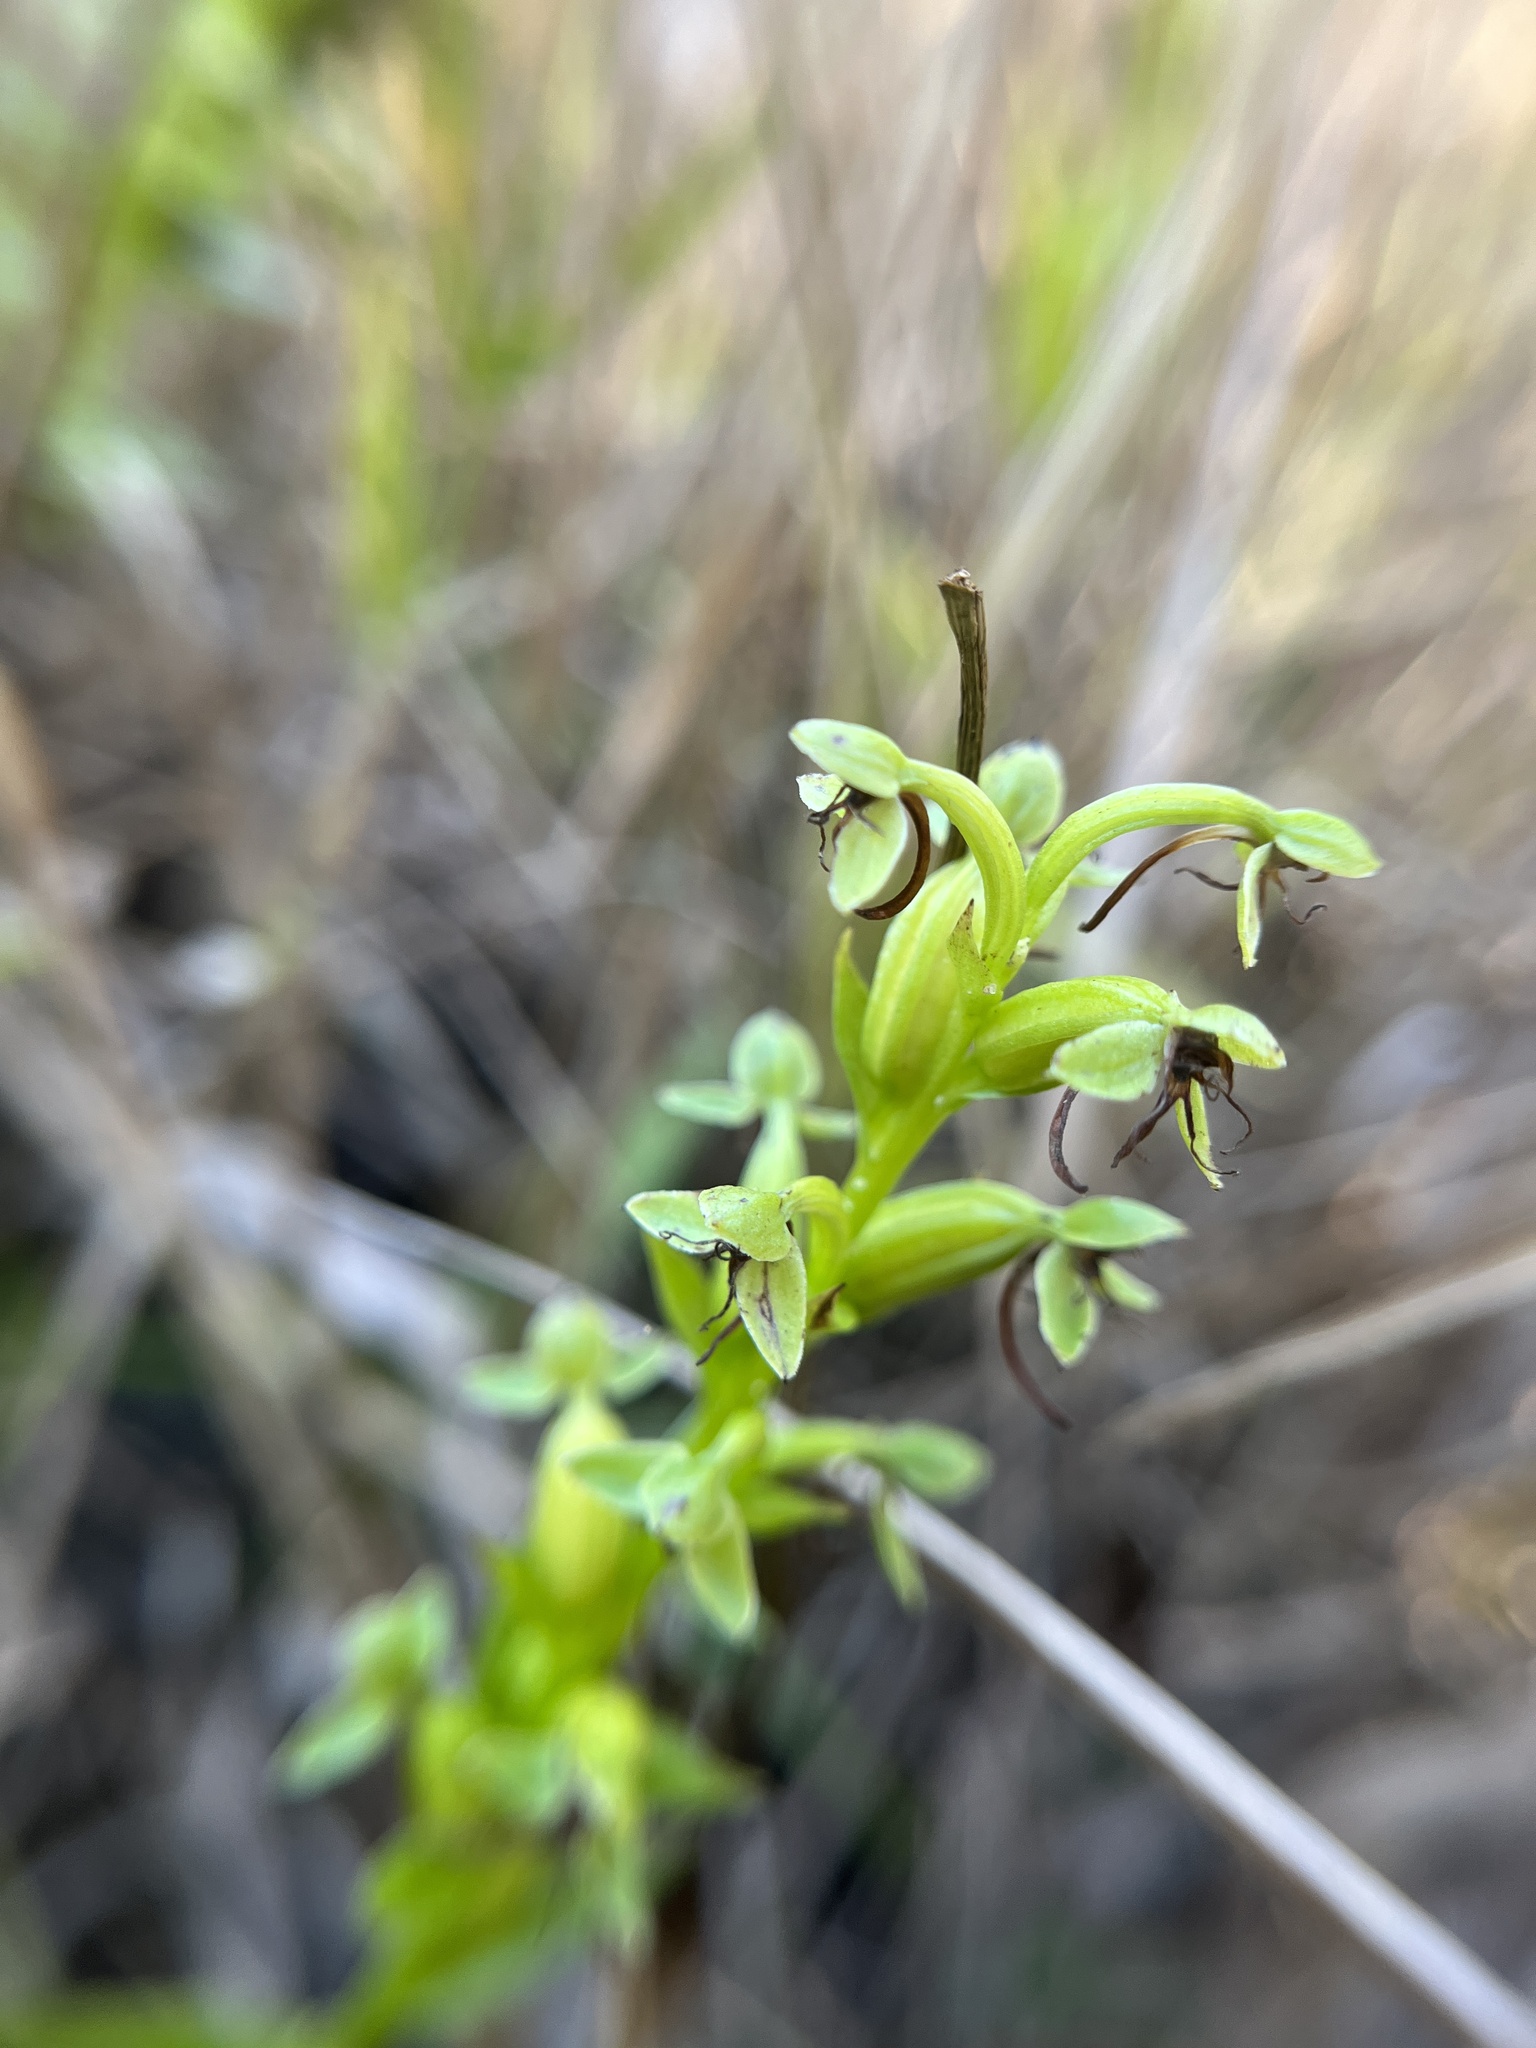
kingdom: Plantae
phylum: Tracheophyta
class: Liliopsida
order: Asparagales
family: Orchidaceae
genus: Habenaria
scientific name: Habenaria repens
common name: Water orchid
